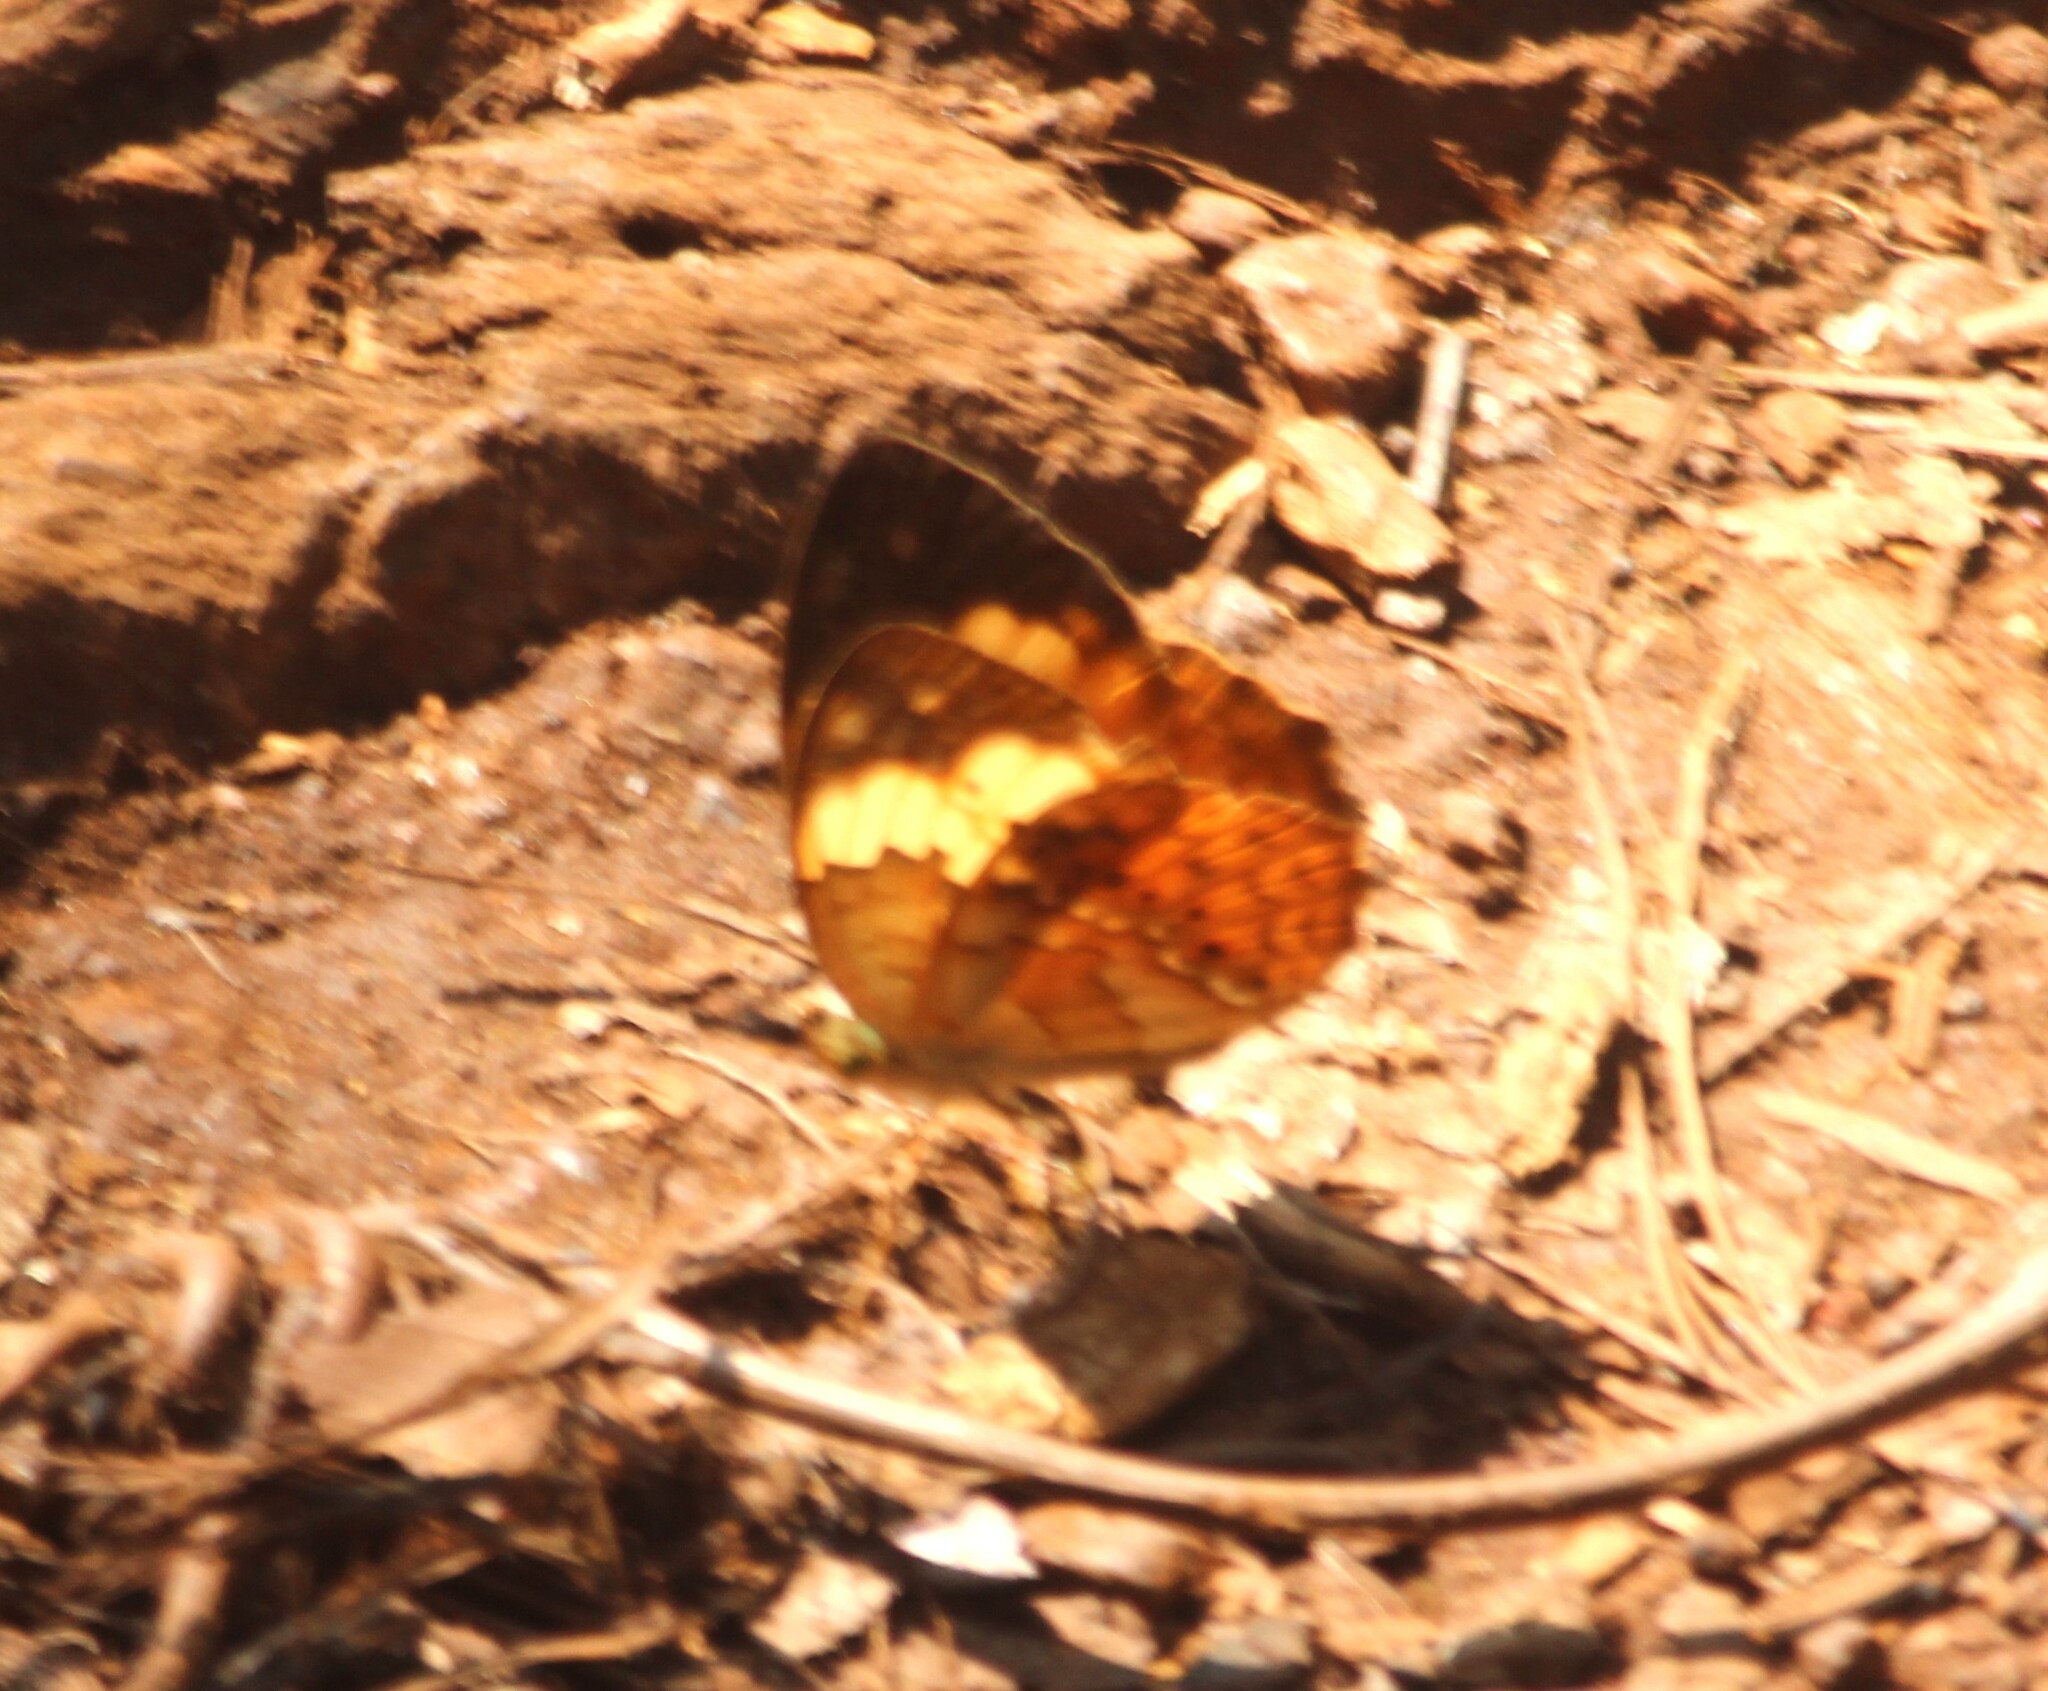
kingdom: Animalia
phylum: Arthropoda
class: Insecta
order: Lepidoptera
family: Nymphalidae
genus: Cupha
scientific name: Cupha erymanthis
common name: Rustic
